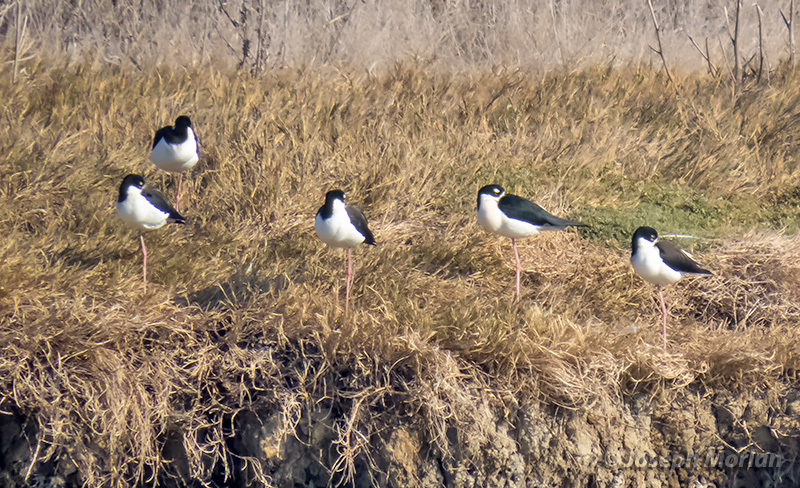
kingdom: Animalia
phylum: Chordata
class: Aves
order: Charadriiformes
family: Recurvirostridae
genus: Himantopus
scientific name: Himantopus mexicanus
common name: Black-necked stilt
